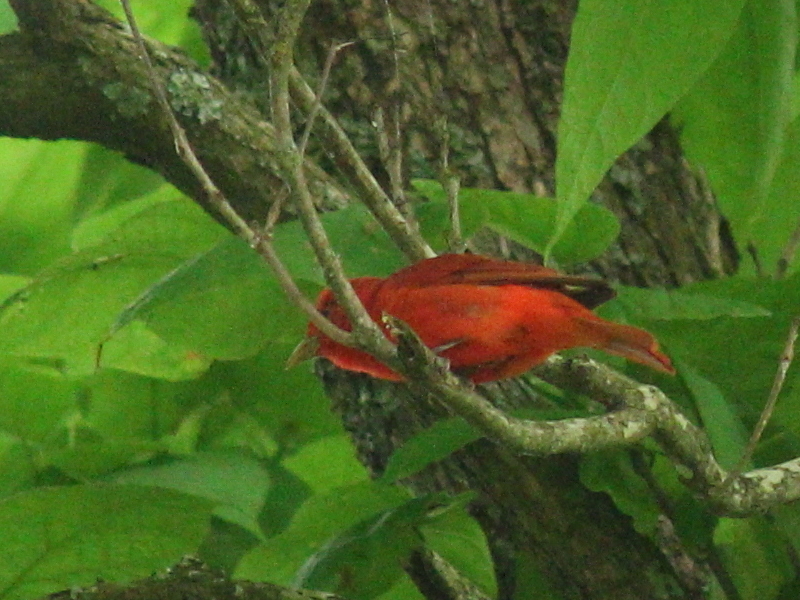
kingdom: Animalia
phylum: Chordata
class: Aves
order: Passeriformes
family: Cardinalidae
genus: Piranga
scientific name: Piranga rubra
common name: Summer tanager
